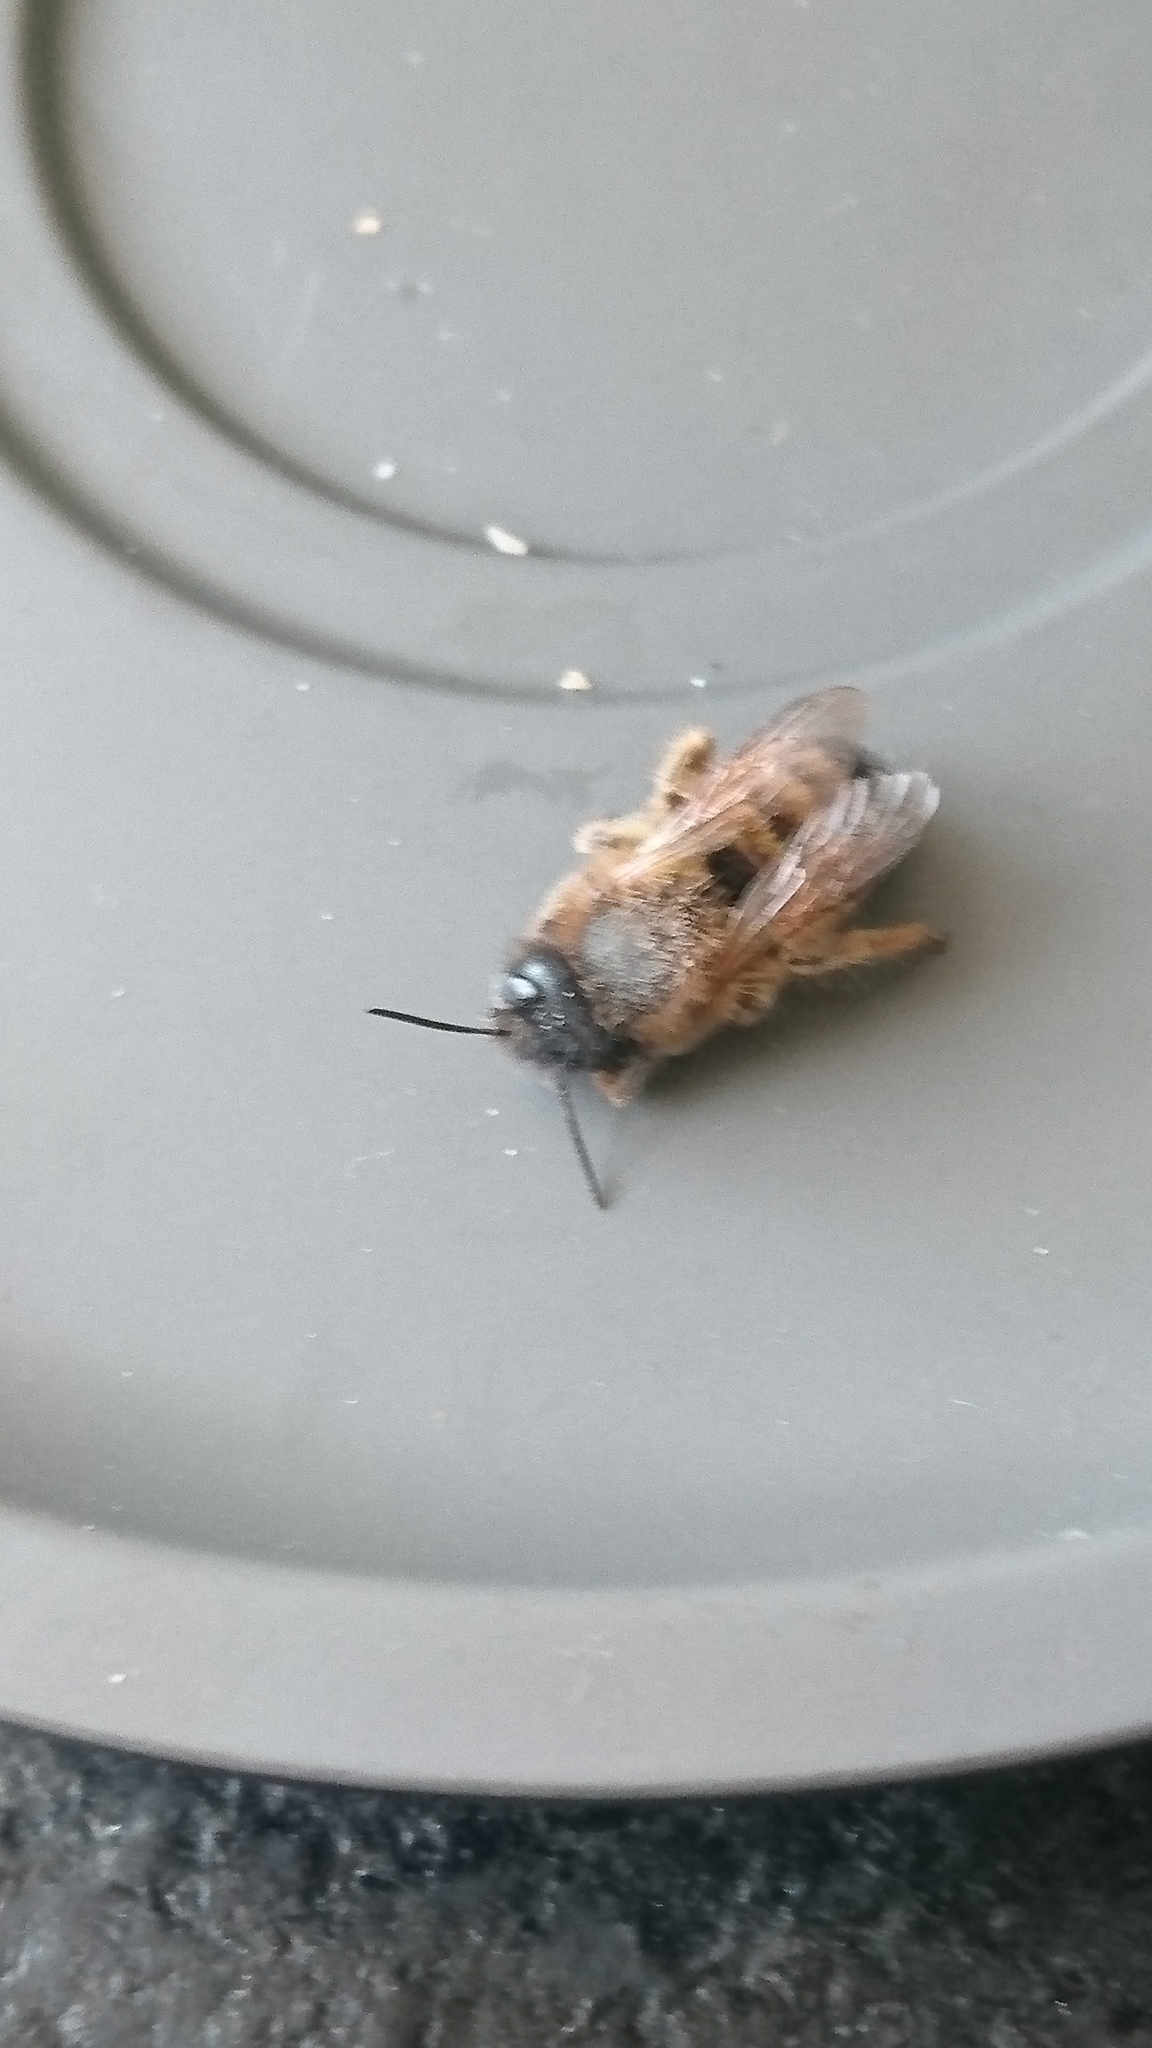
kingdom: Animalia
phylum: Arthropoda
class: Insecta
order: Hymenoptera
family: Megachilidae
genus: Osmia
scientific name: Osmia bicornis
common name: Red mason bee
